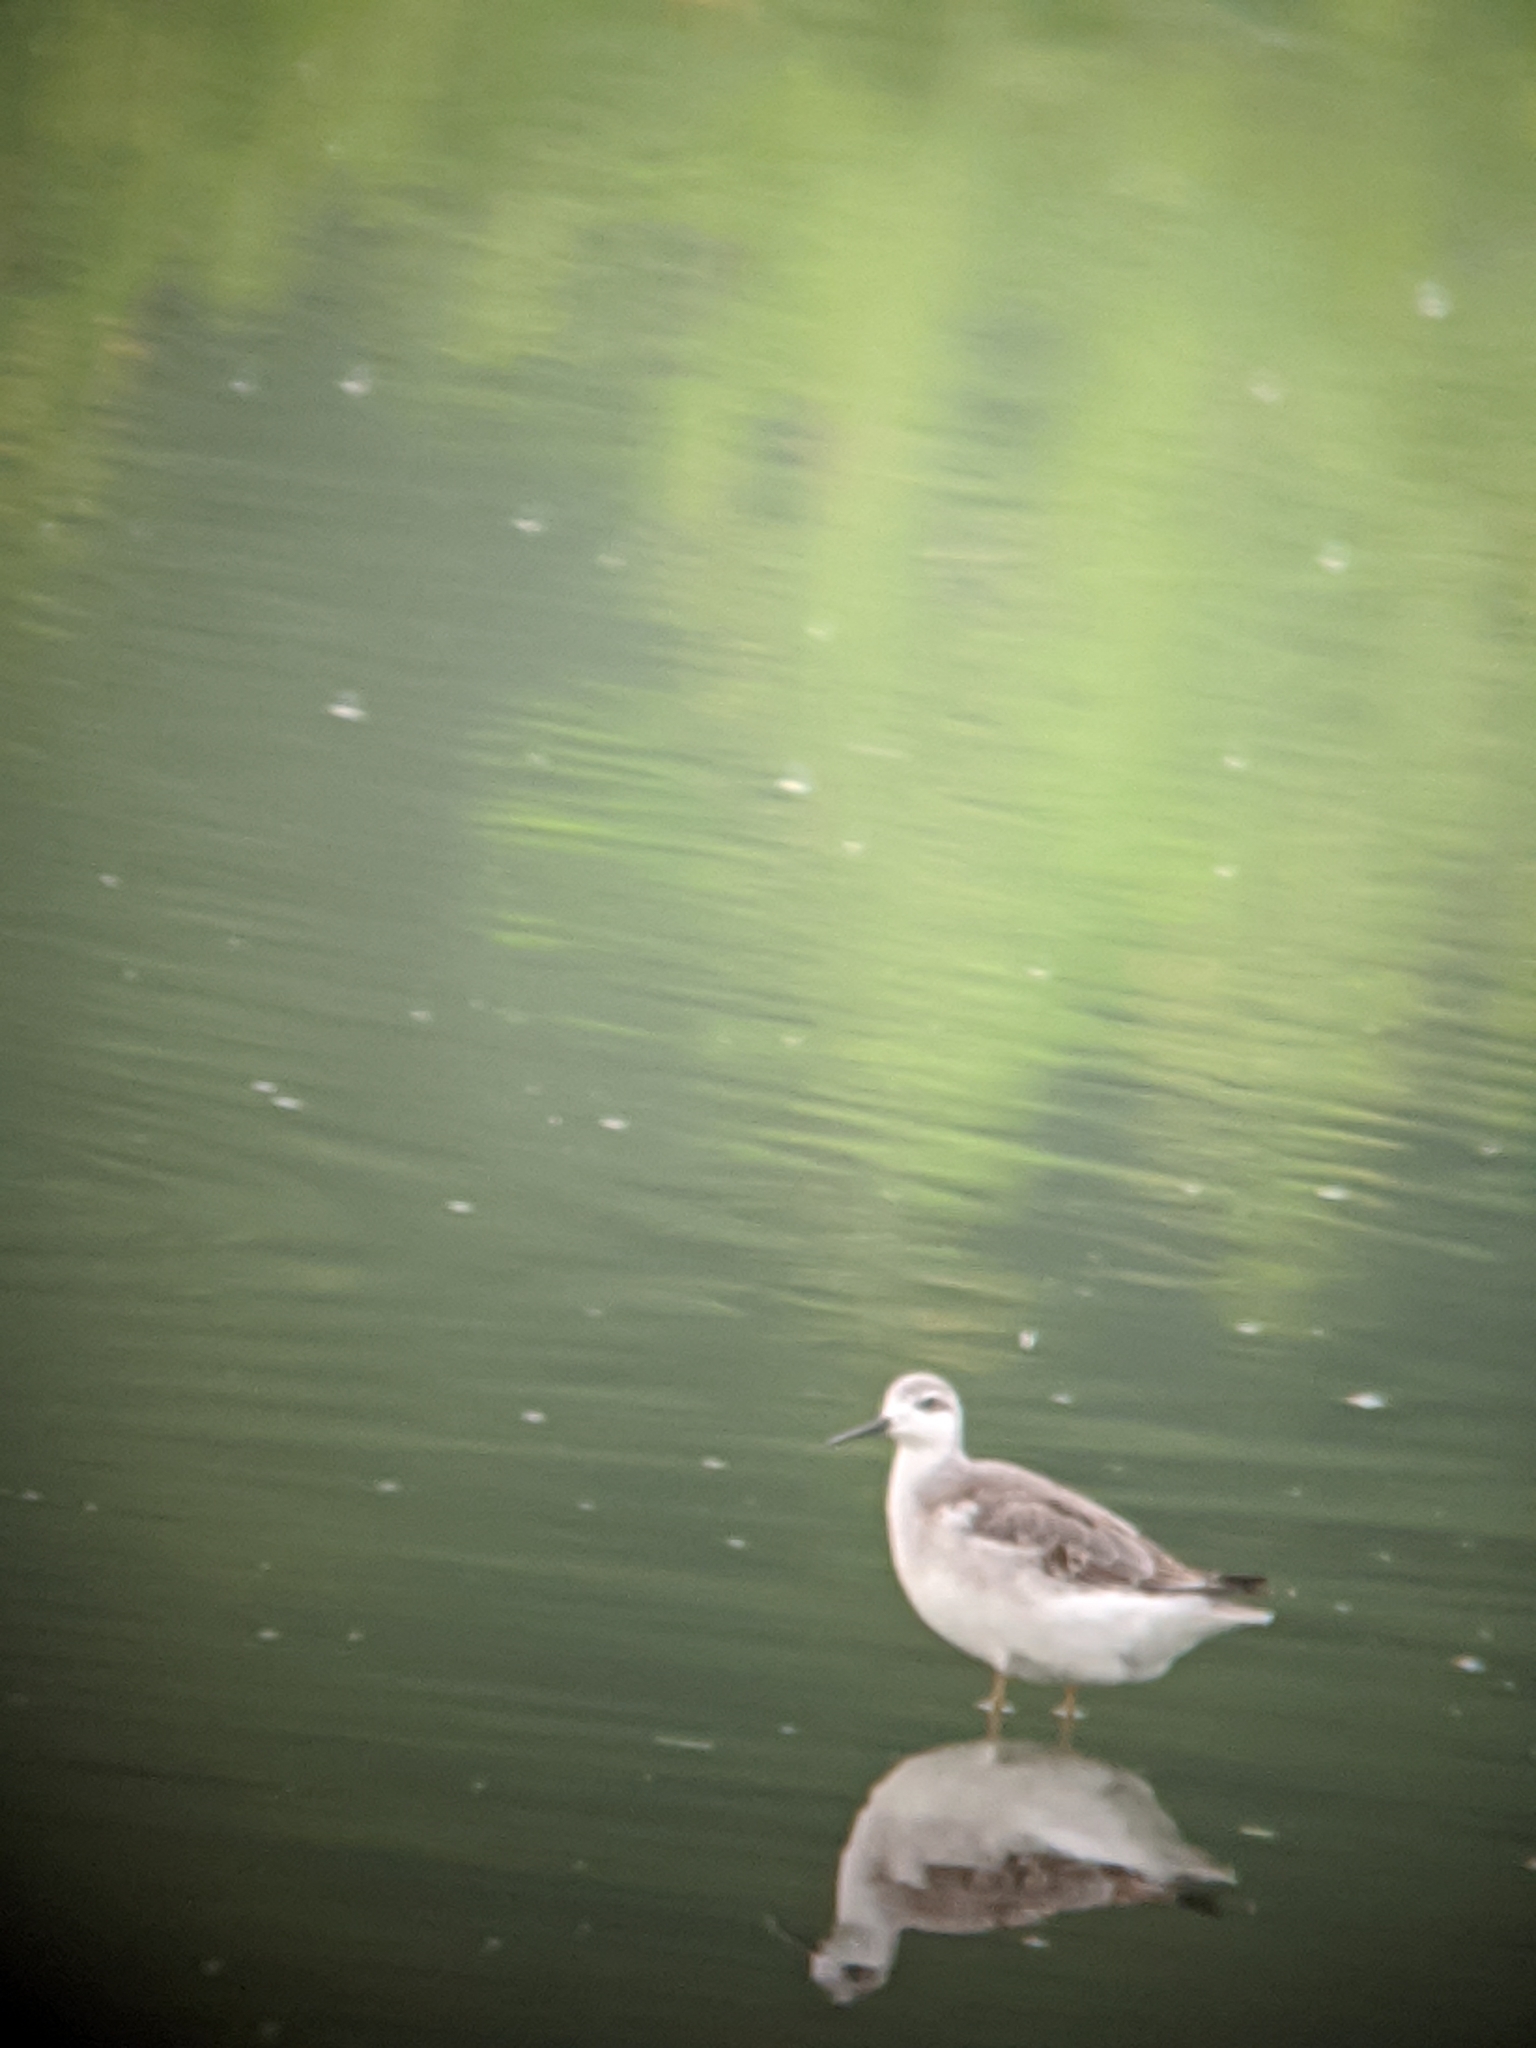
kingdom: Animalia
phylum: Chordata
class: Aves
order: Charadriiformes
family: Scolopacidae
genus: Phalaropus
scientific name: Phalaropus tricolor
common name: Wilson's phalarope
